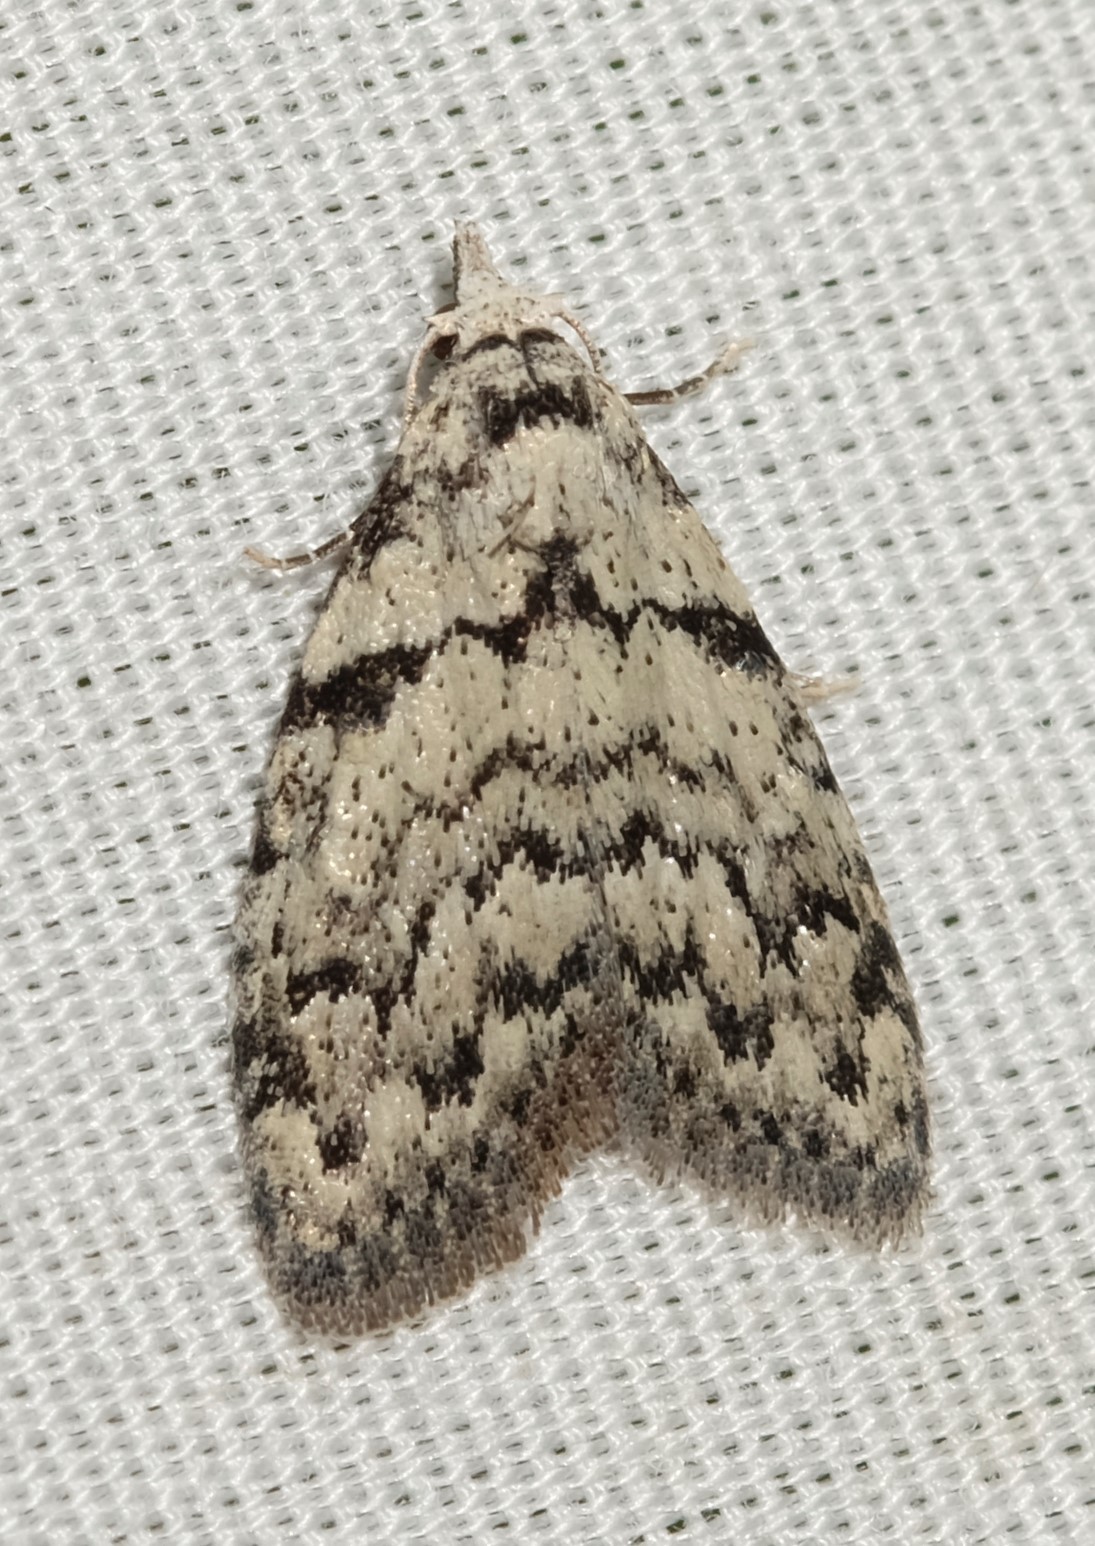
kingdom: Animalia
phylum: Arthropoda
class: Insecta
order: Lepidoptera
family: Nolidae
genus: Nola
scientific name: Nola melanogramma
